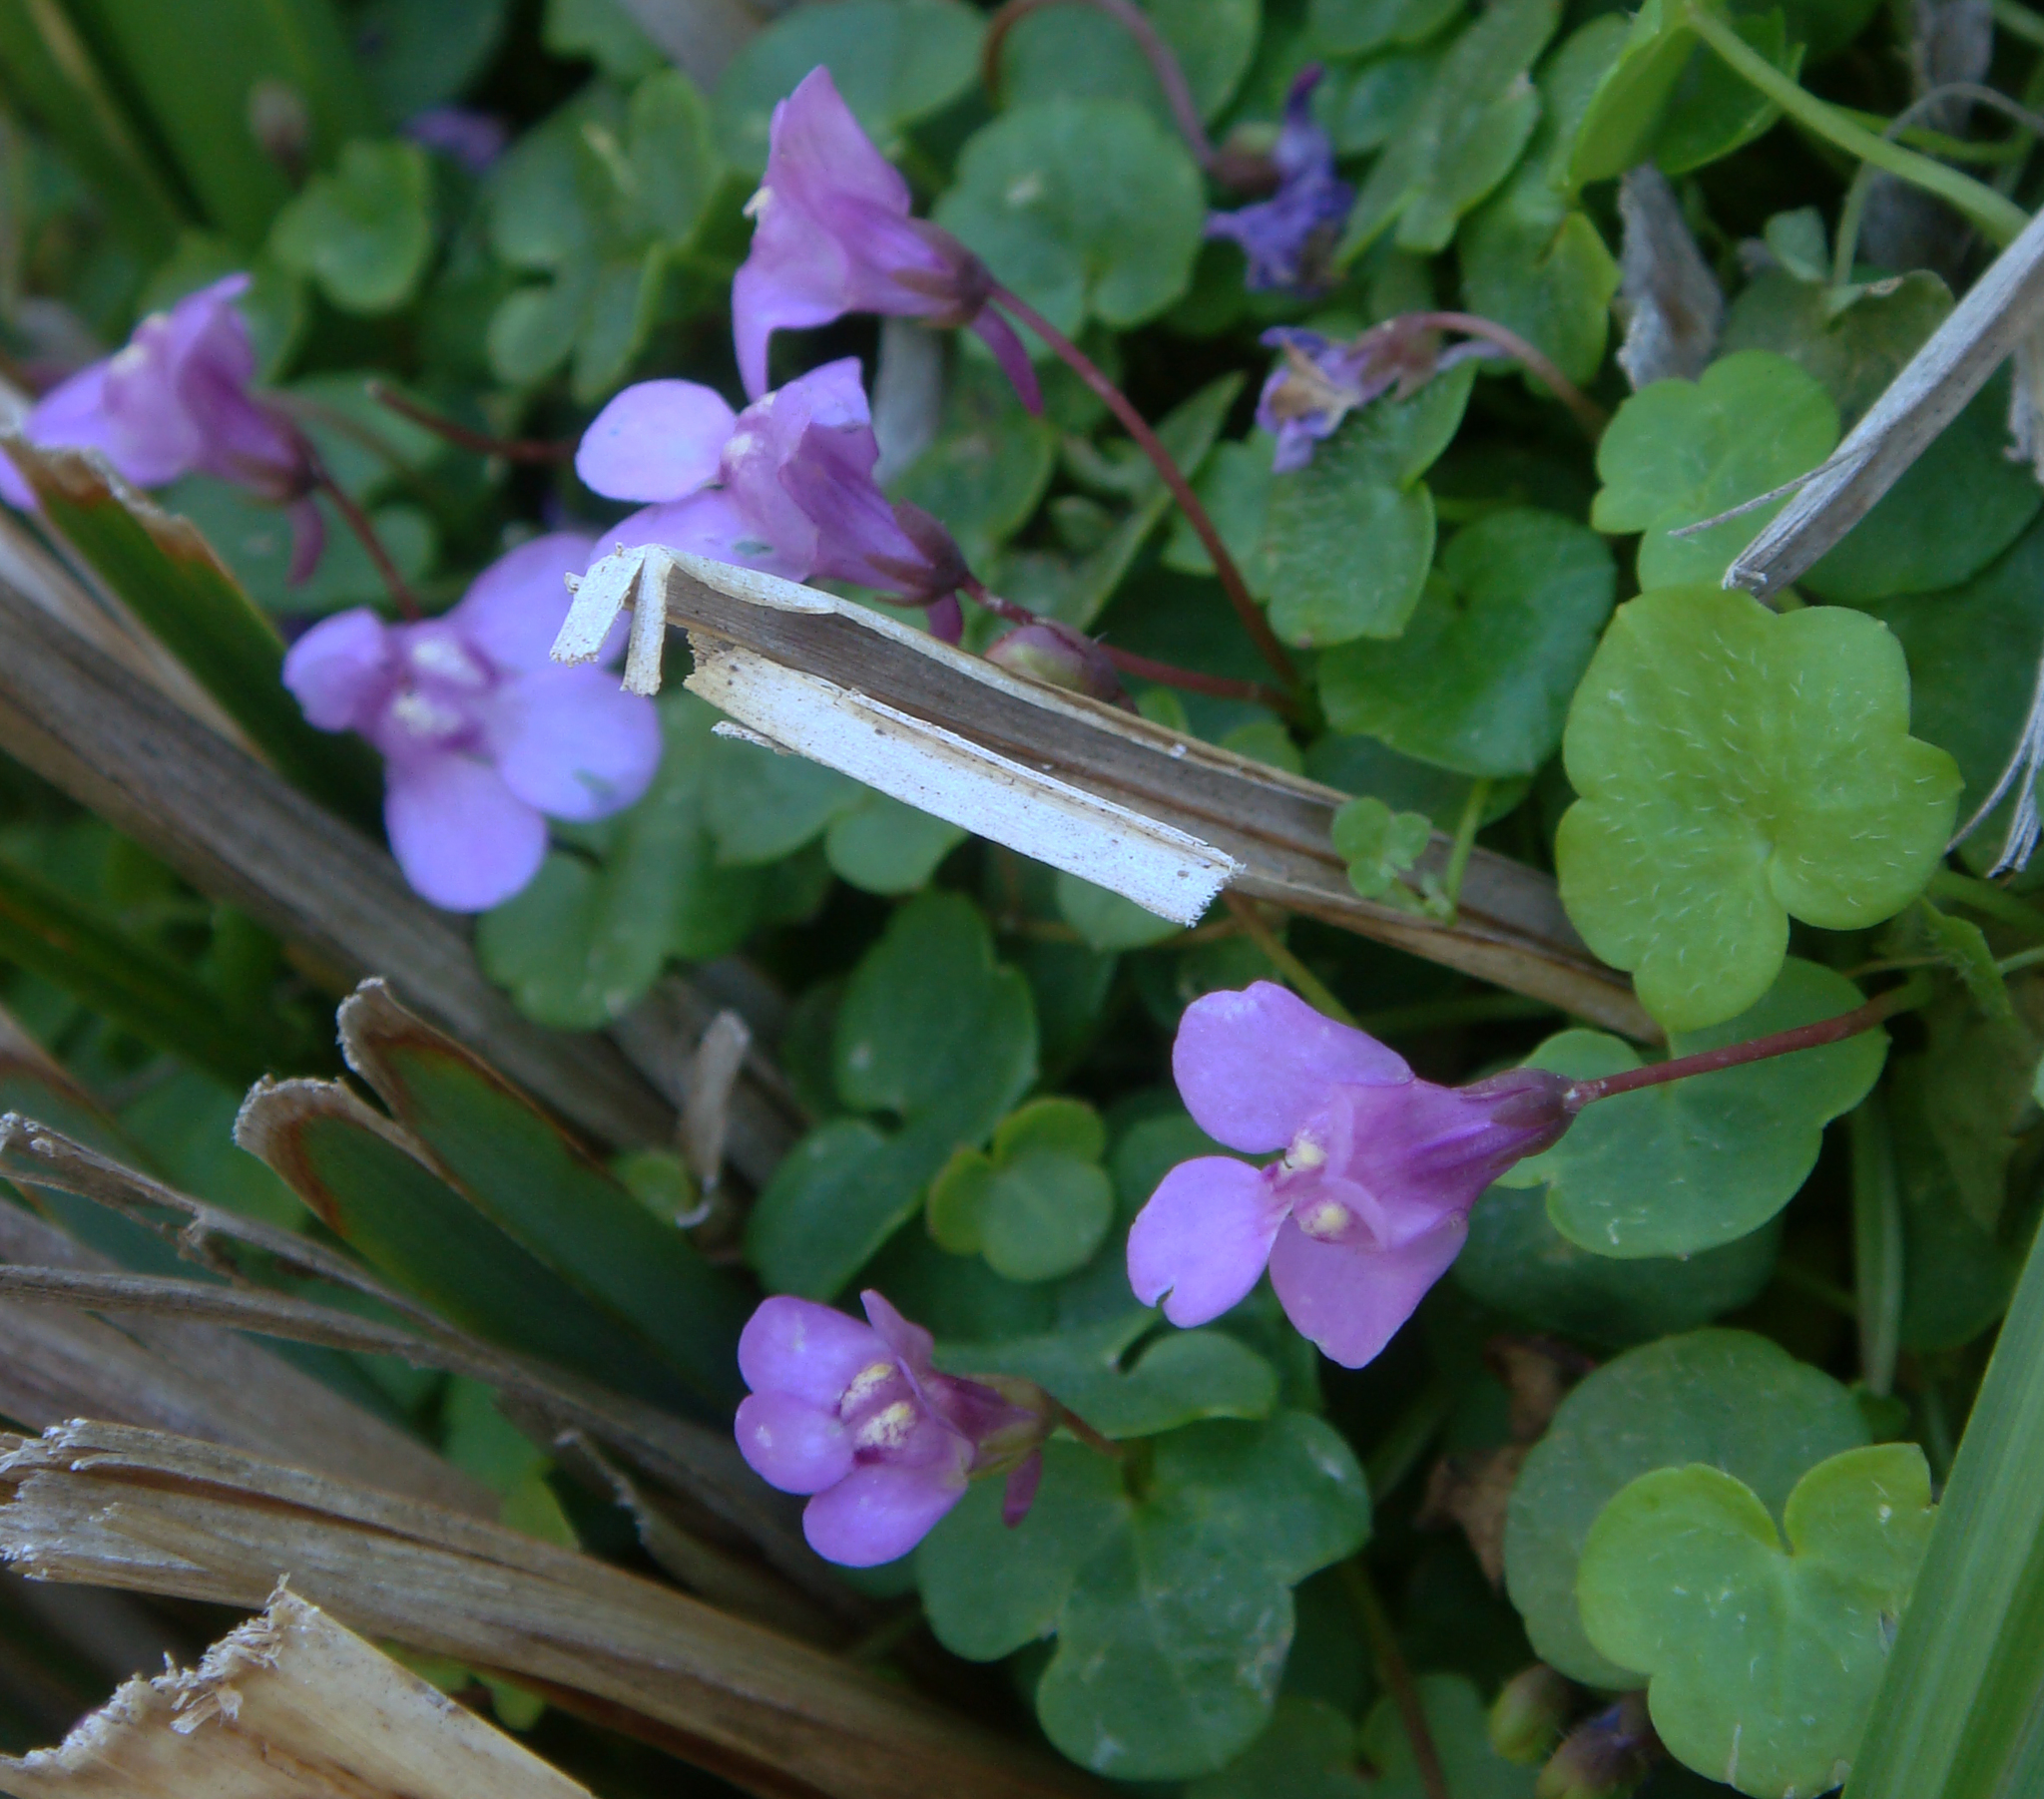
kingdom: Plantae
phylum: Tracheophyta
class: Magnoliopsida
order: Lamiales
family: Plantaginaceae
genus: Cymbalaria
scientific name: Cymbalaria aequitriloba
